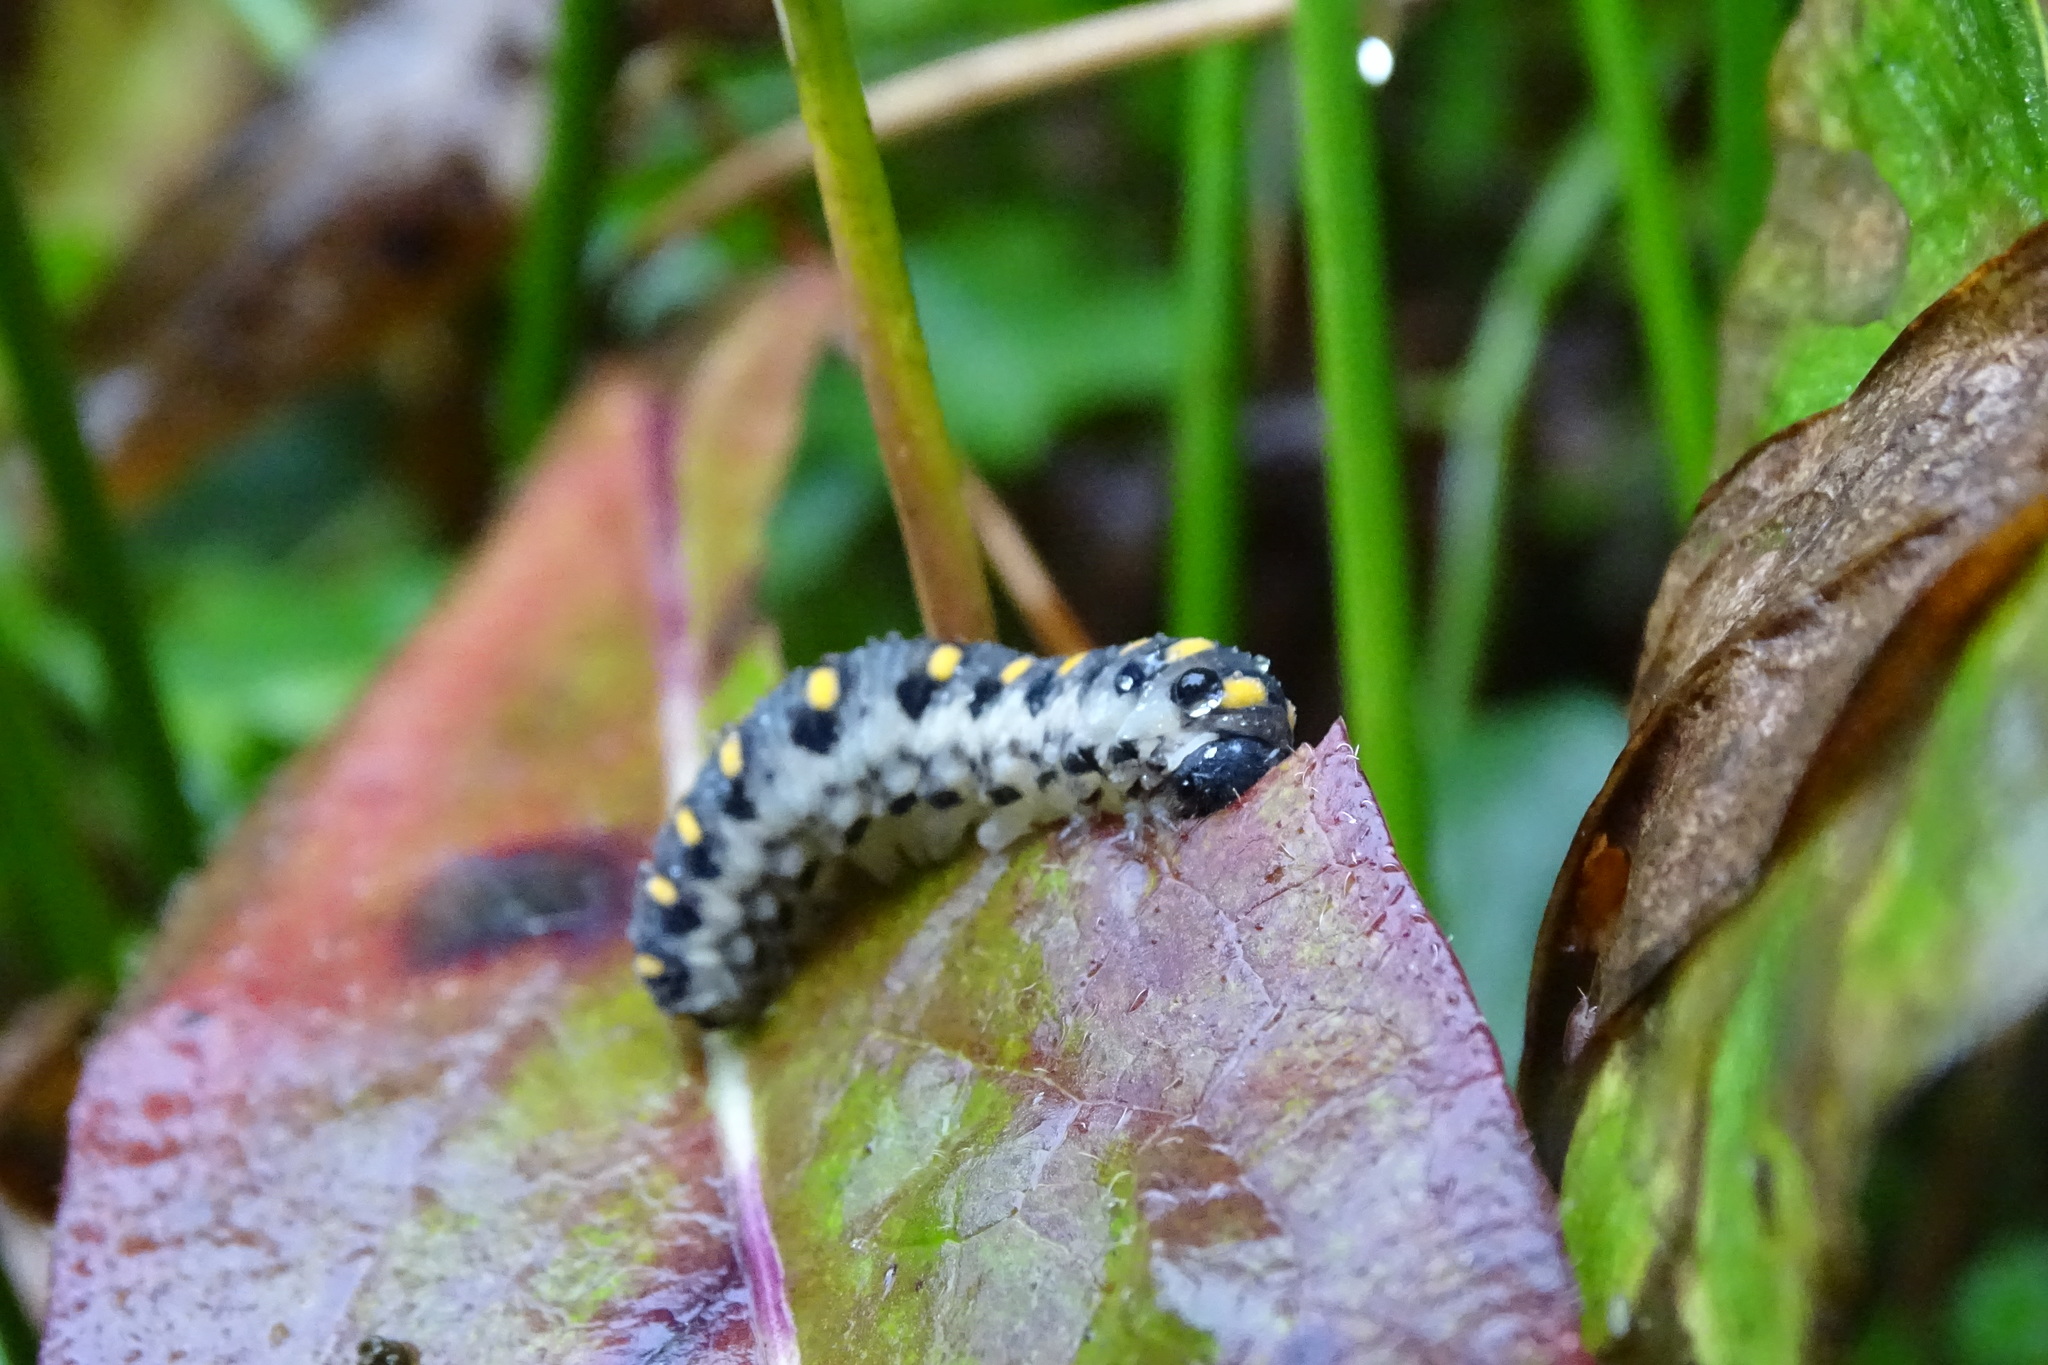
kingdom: Animalia
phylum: Arthropoda
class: Insecta
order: Hymenoptera
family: Cimbicidae
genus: Abia
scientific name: Abia nitens
